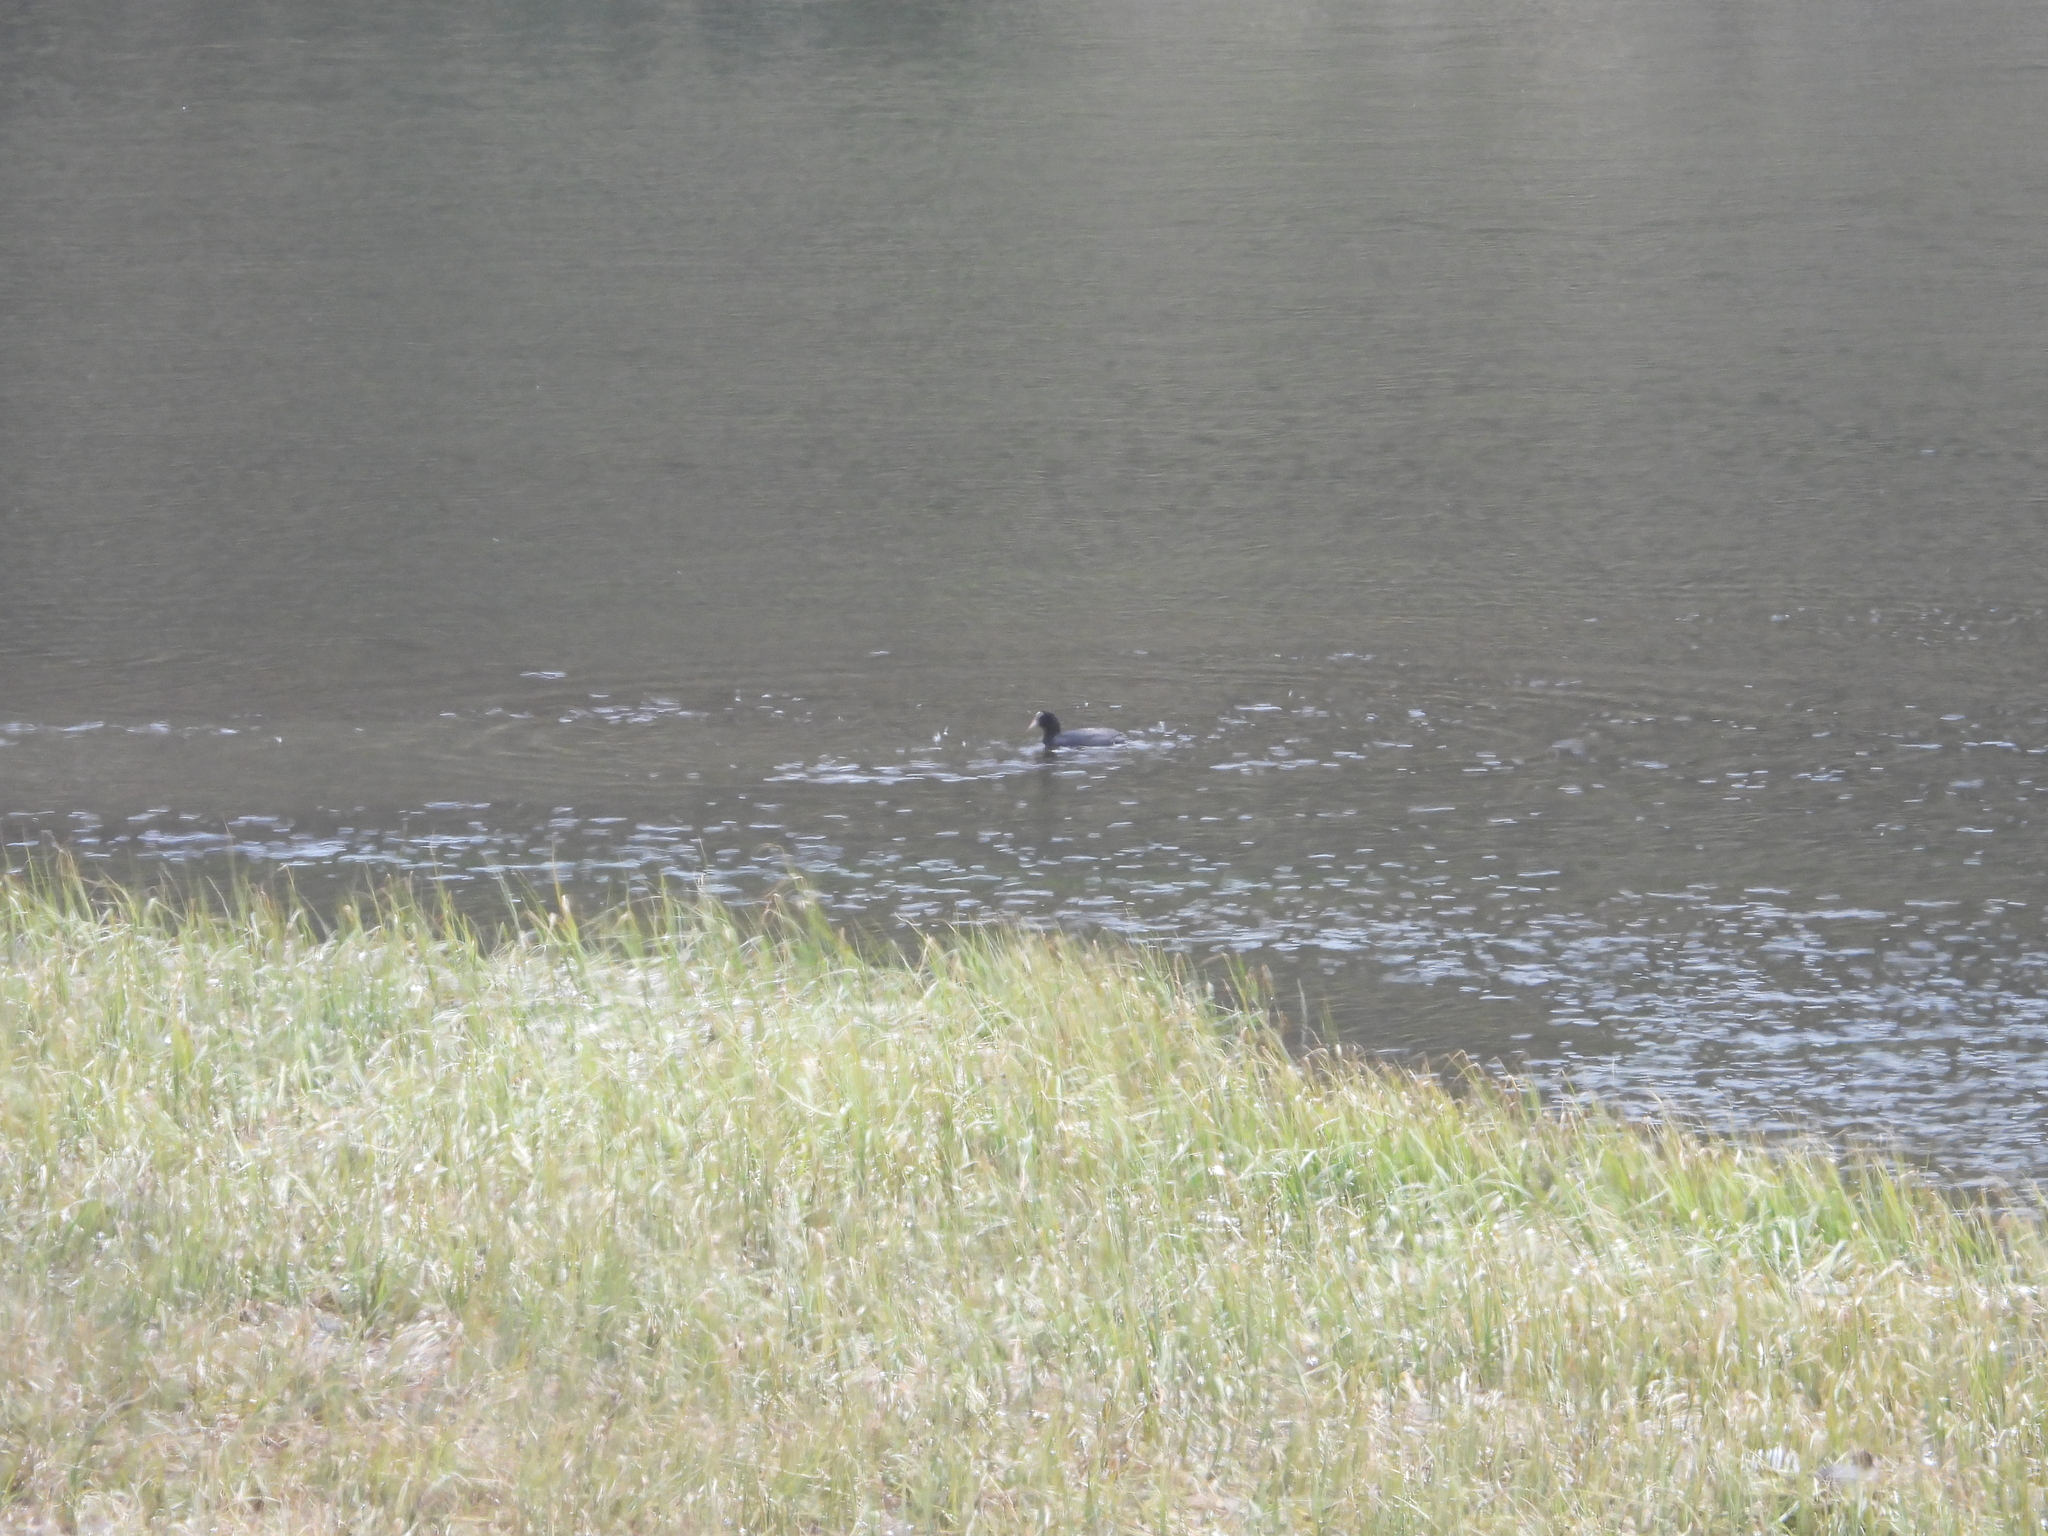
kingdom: Animalia
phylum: Chordata
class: Aves
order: Gruiformes
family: Rallidae
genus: Fulica
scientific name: Fulica atra
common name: Eurasian coot
